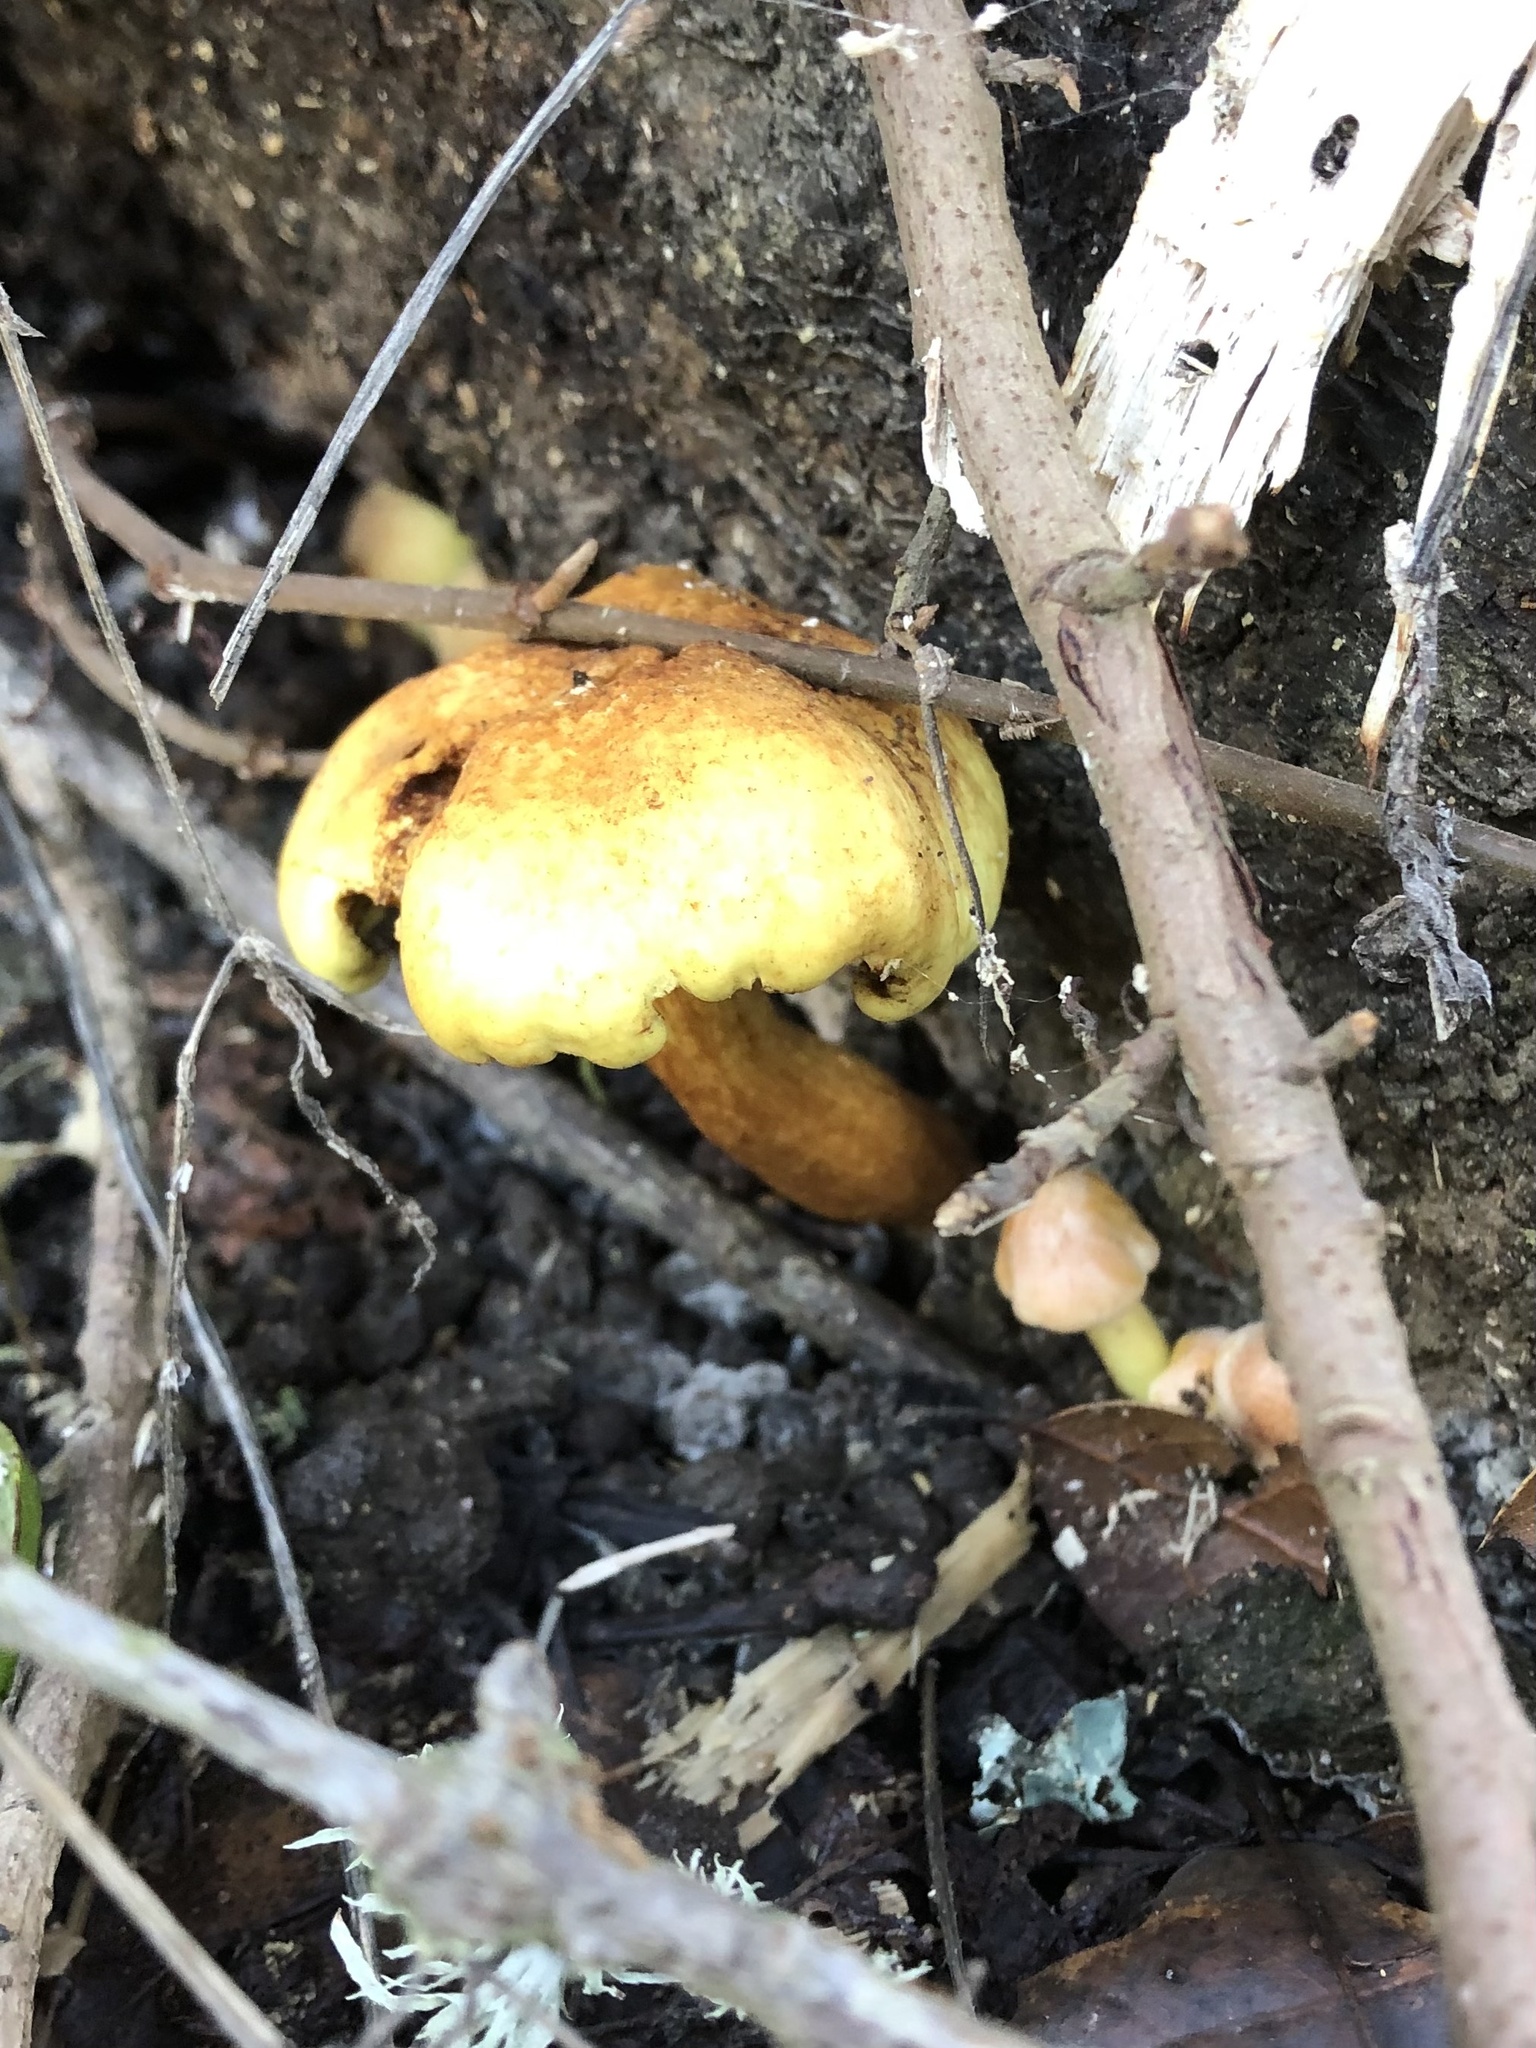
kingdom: Fungi
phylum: Basidiomycota
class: Agaricomycetes
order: Agaricales
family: Strophariaceae
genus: Hypholoma
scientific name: Hypholoma fasciculare
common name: Sulphur tuft
